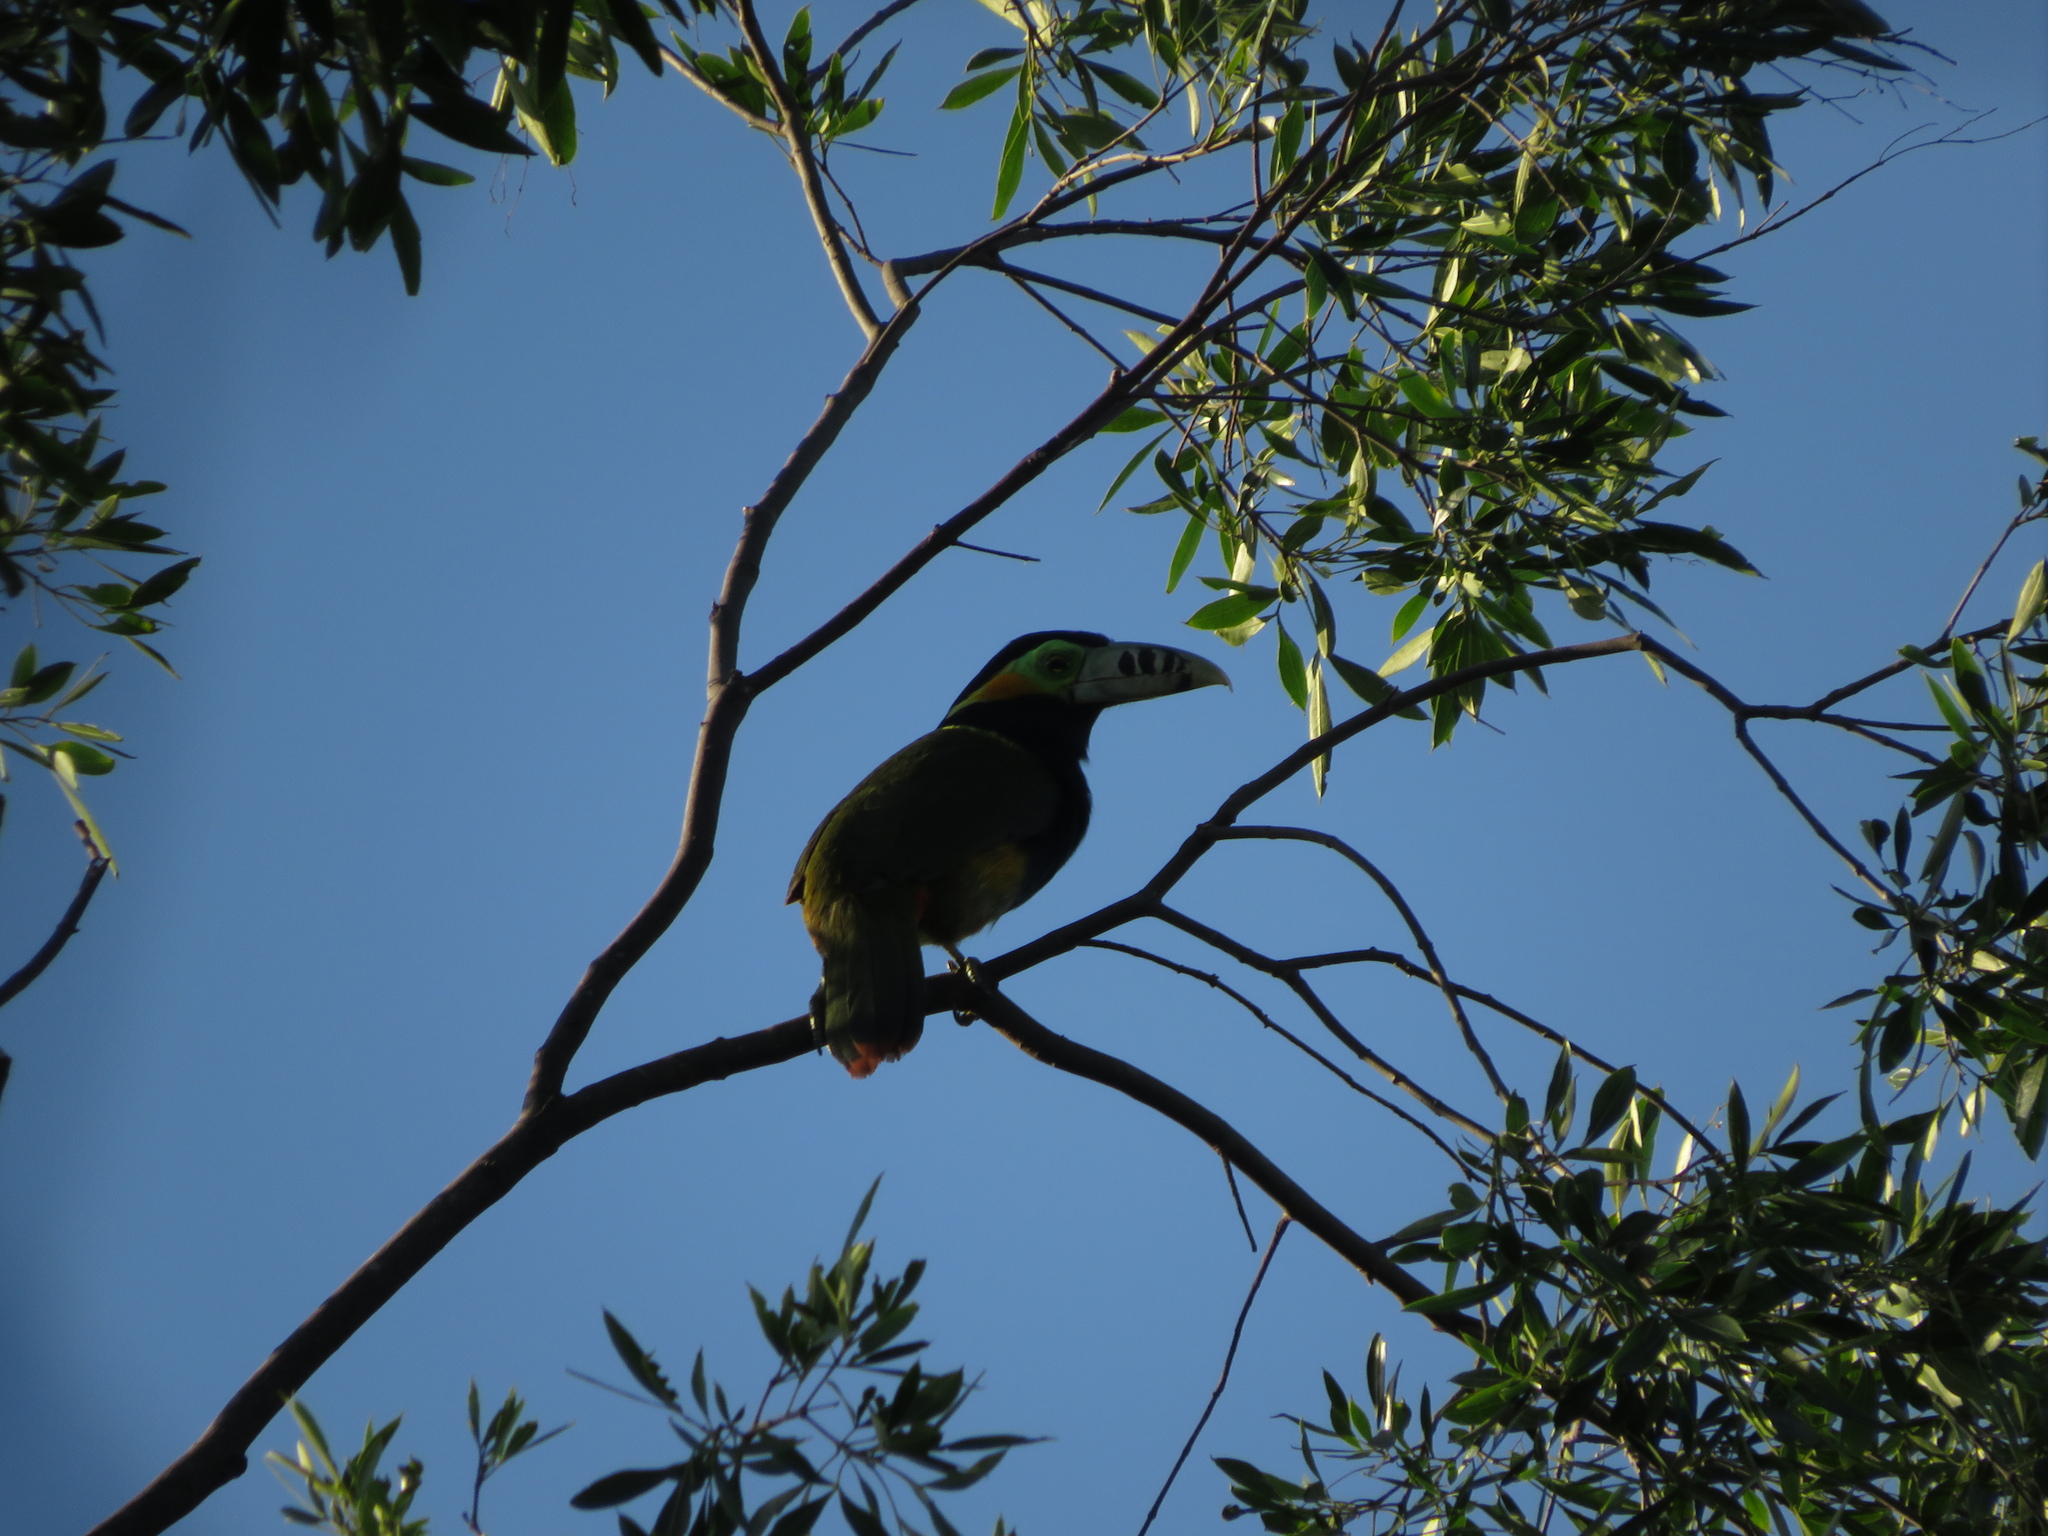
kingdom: Animalia
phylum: Chordata
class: Aves
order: Piciformes
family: Ramphastidae
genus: Selenidera
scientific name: Selenidera maculirostris
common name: Spot-billed toucanet
